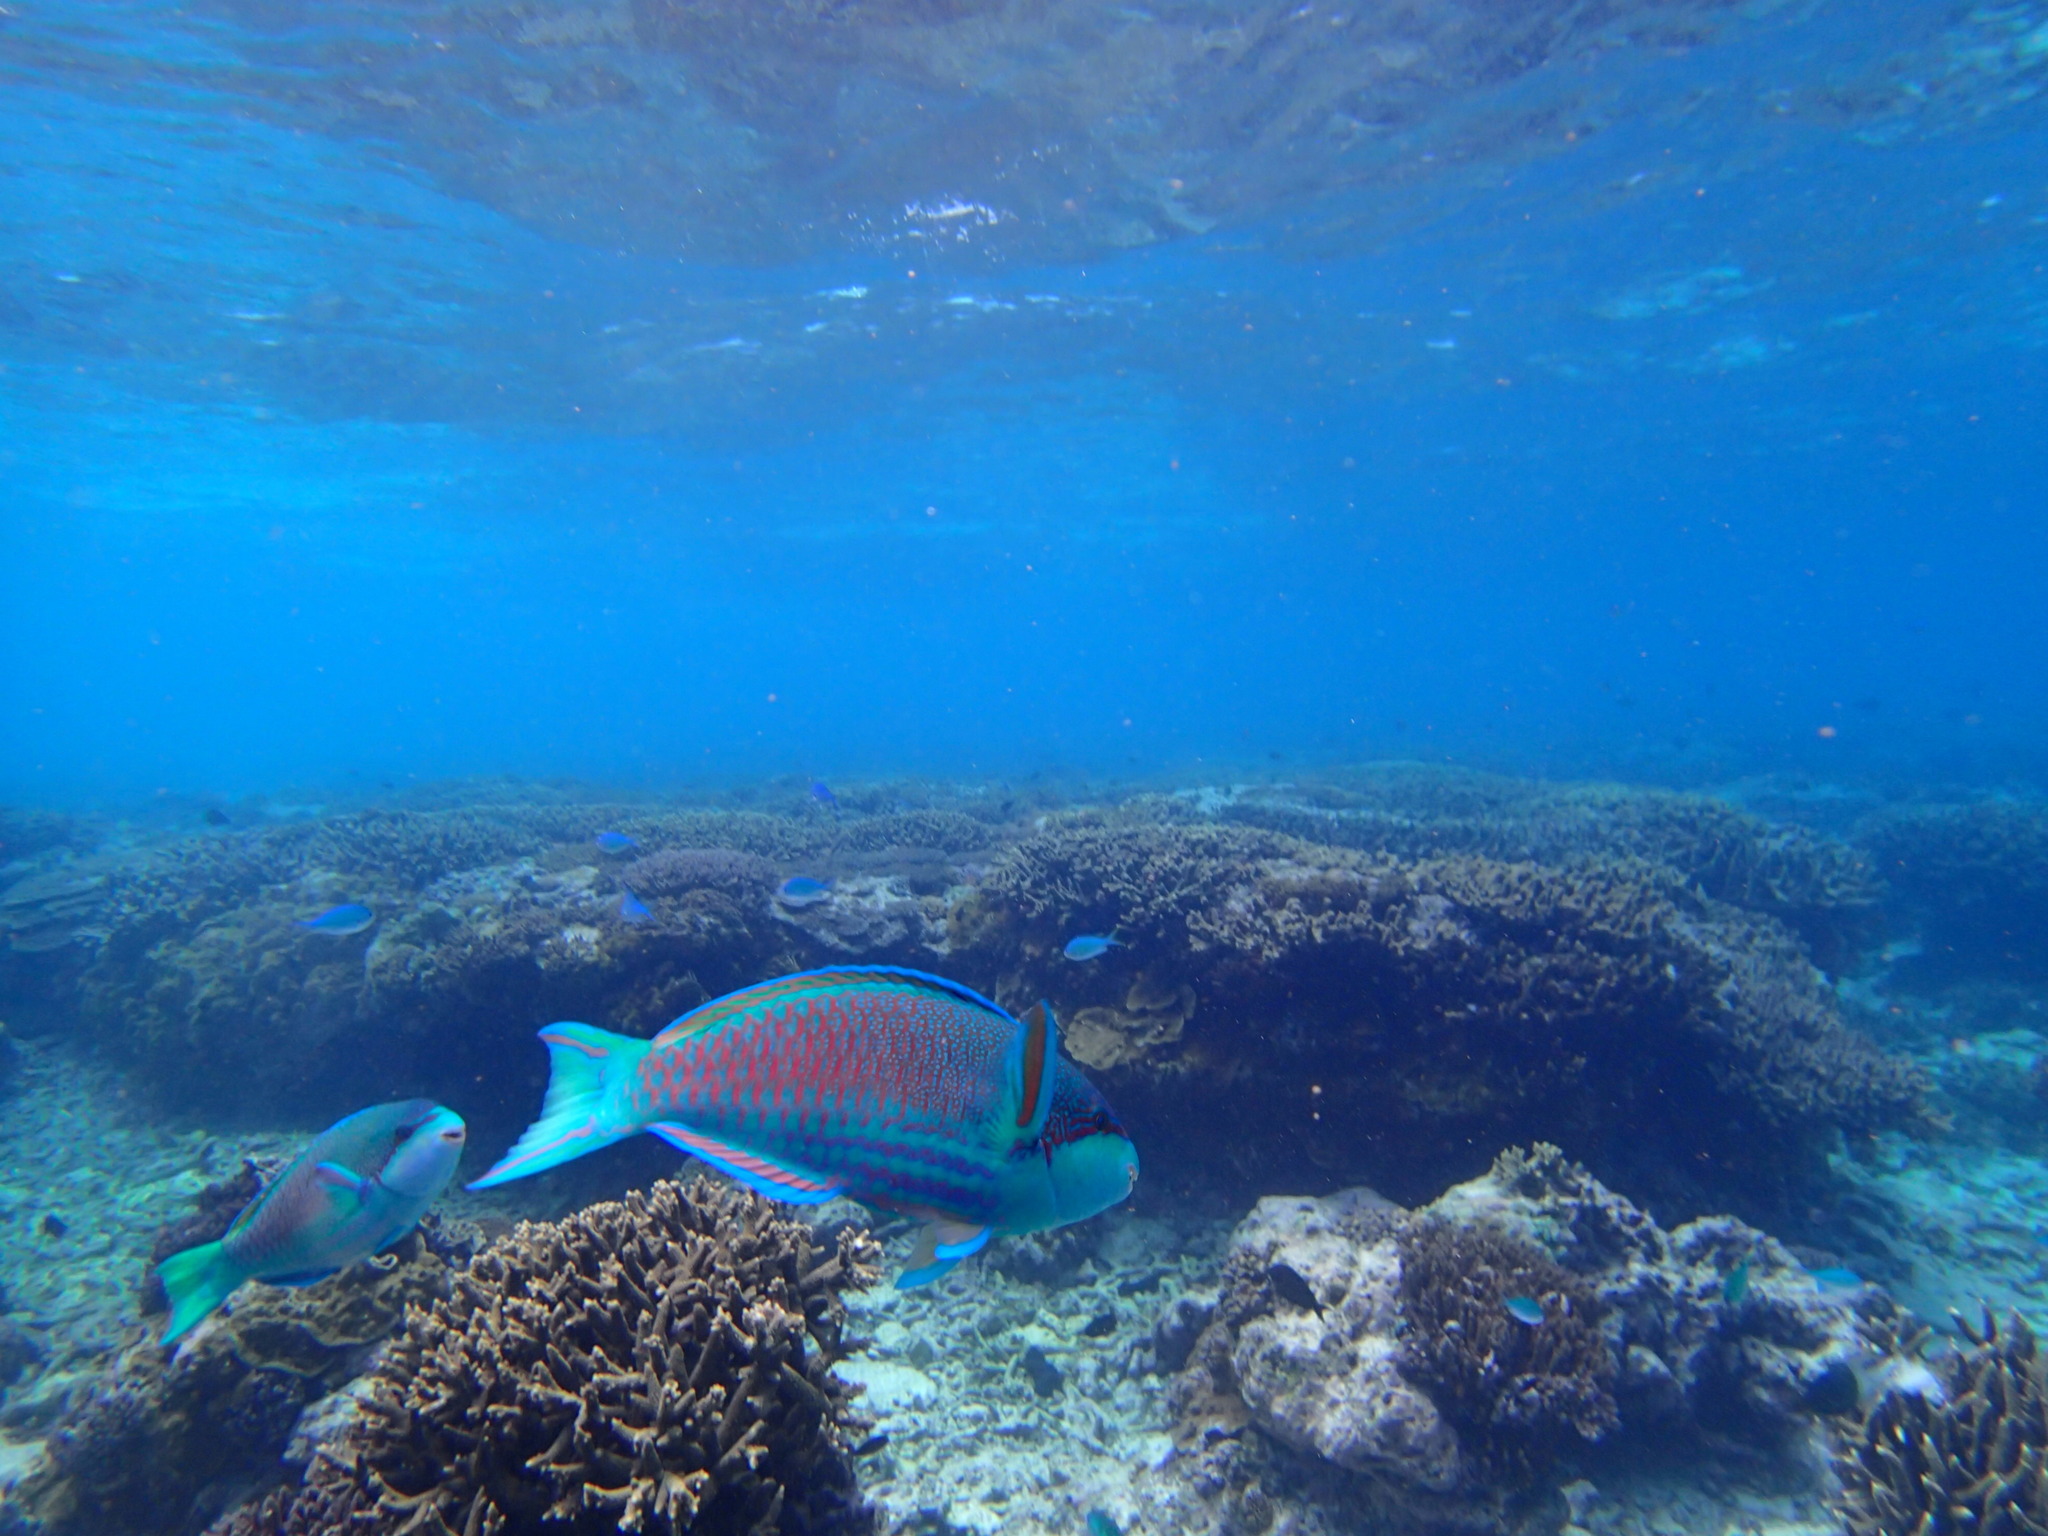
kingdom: Animalia
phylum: Chordata
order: Perciformes
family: Scaridae
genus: Cetoscarus
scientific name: Cetoscarus ocellatus
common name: Bicolor parrotfish
